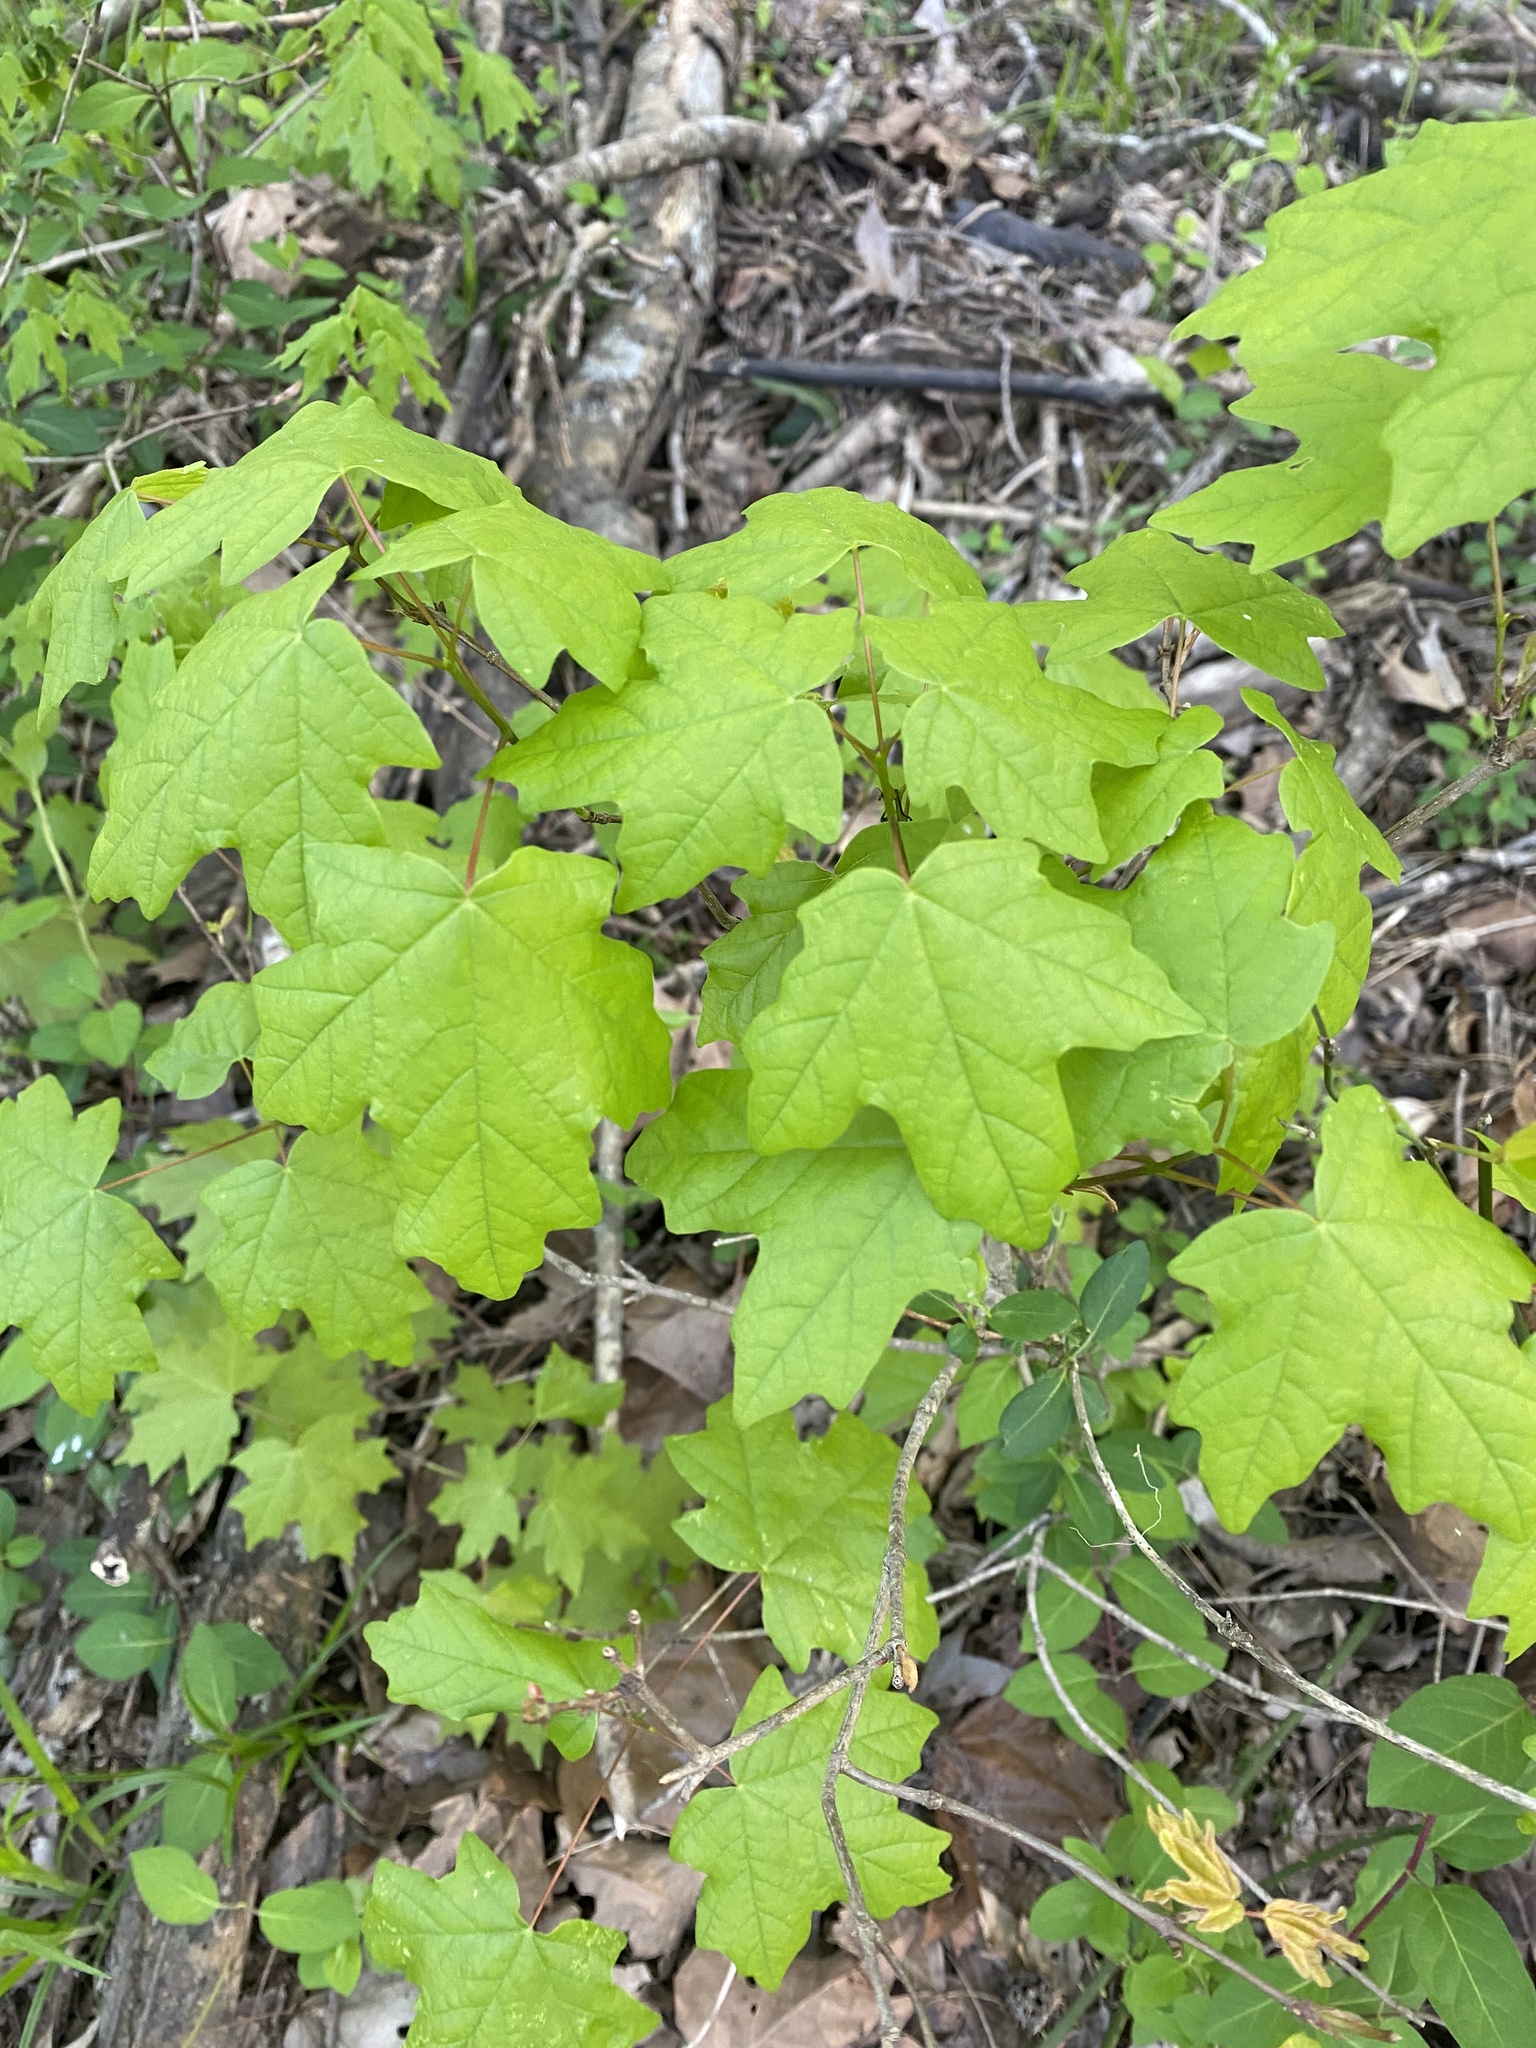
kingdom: Plantae
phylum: Tracheophyta
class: Magnoliopsida
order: Sapindales
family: Sapindaceae
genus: Acer
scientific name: Acer floridanum
